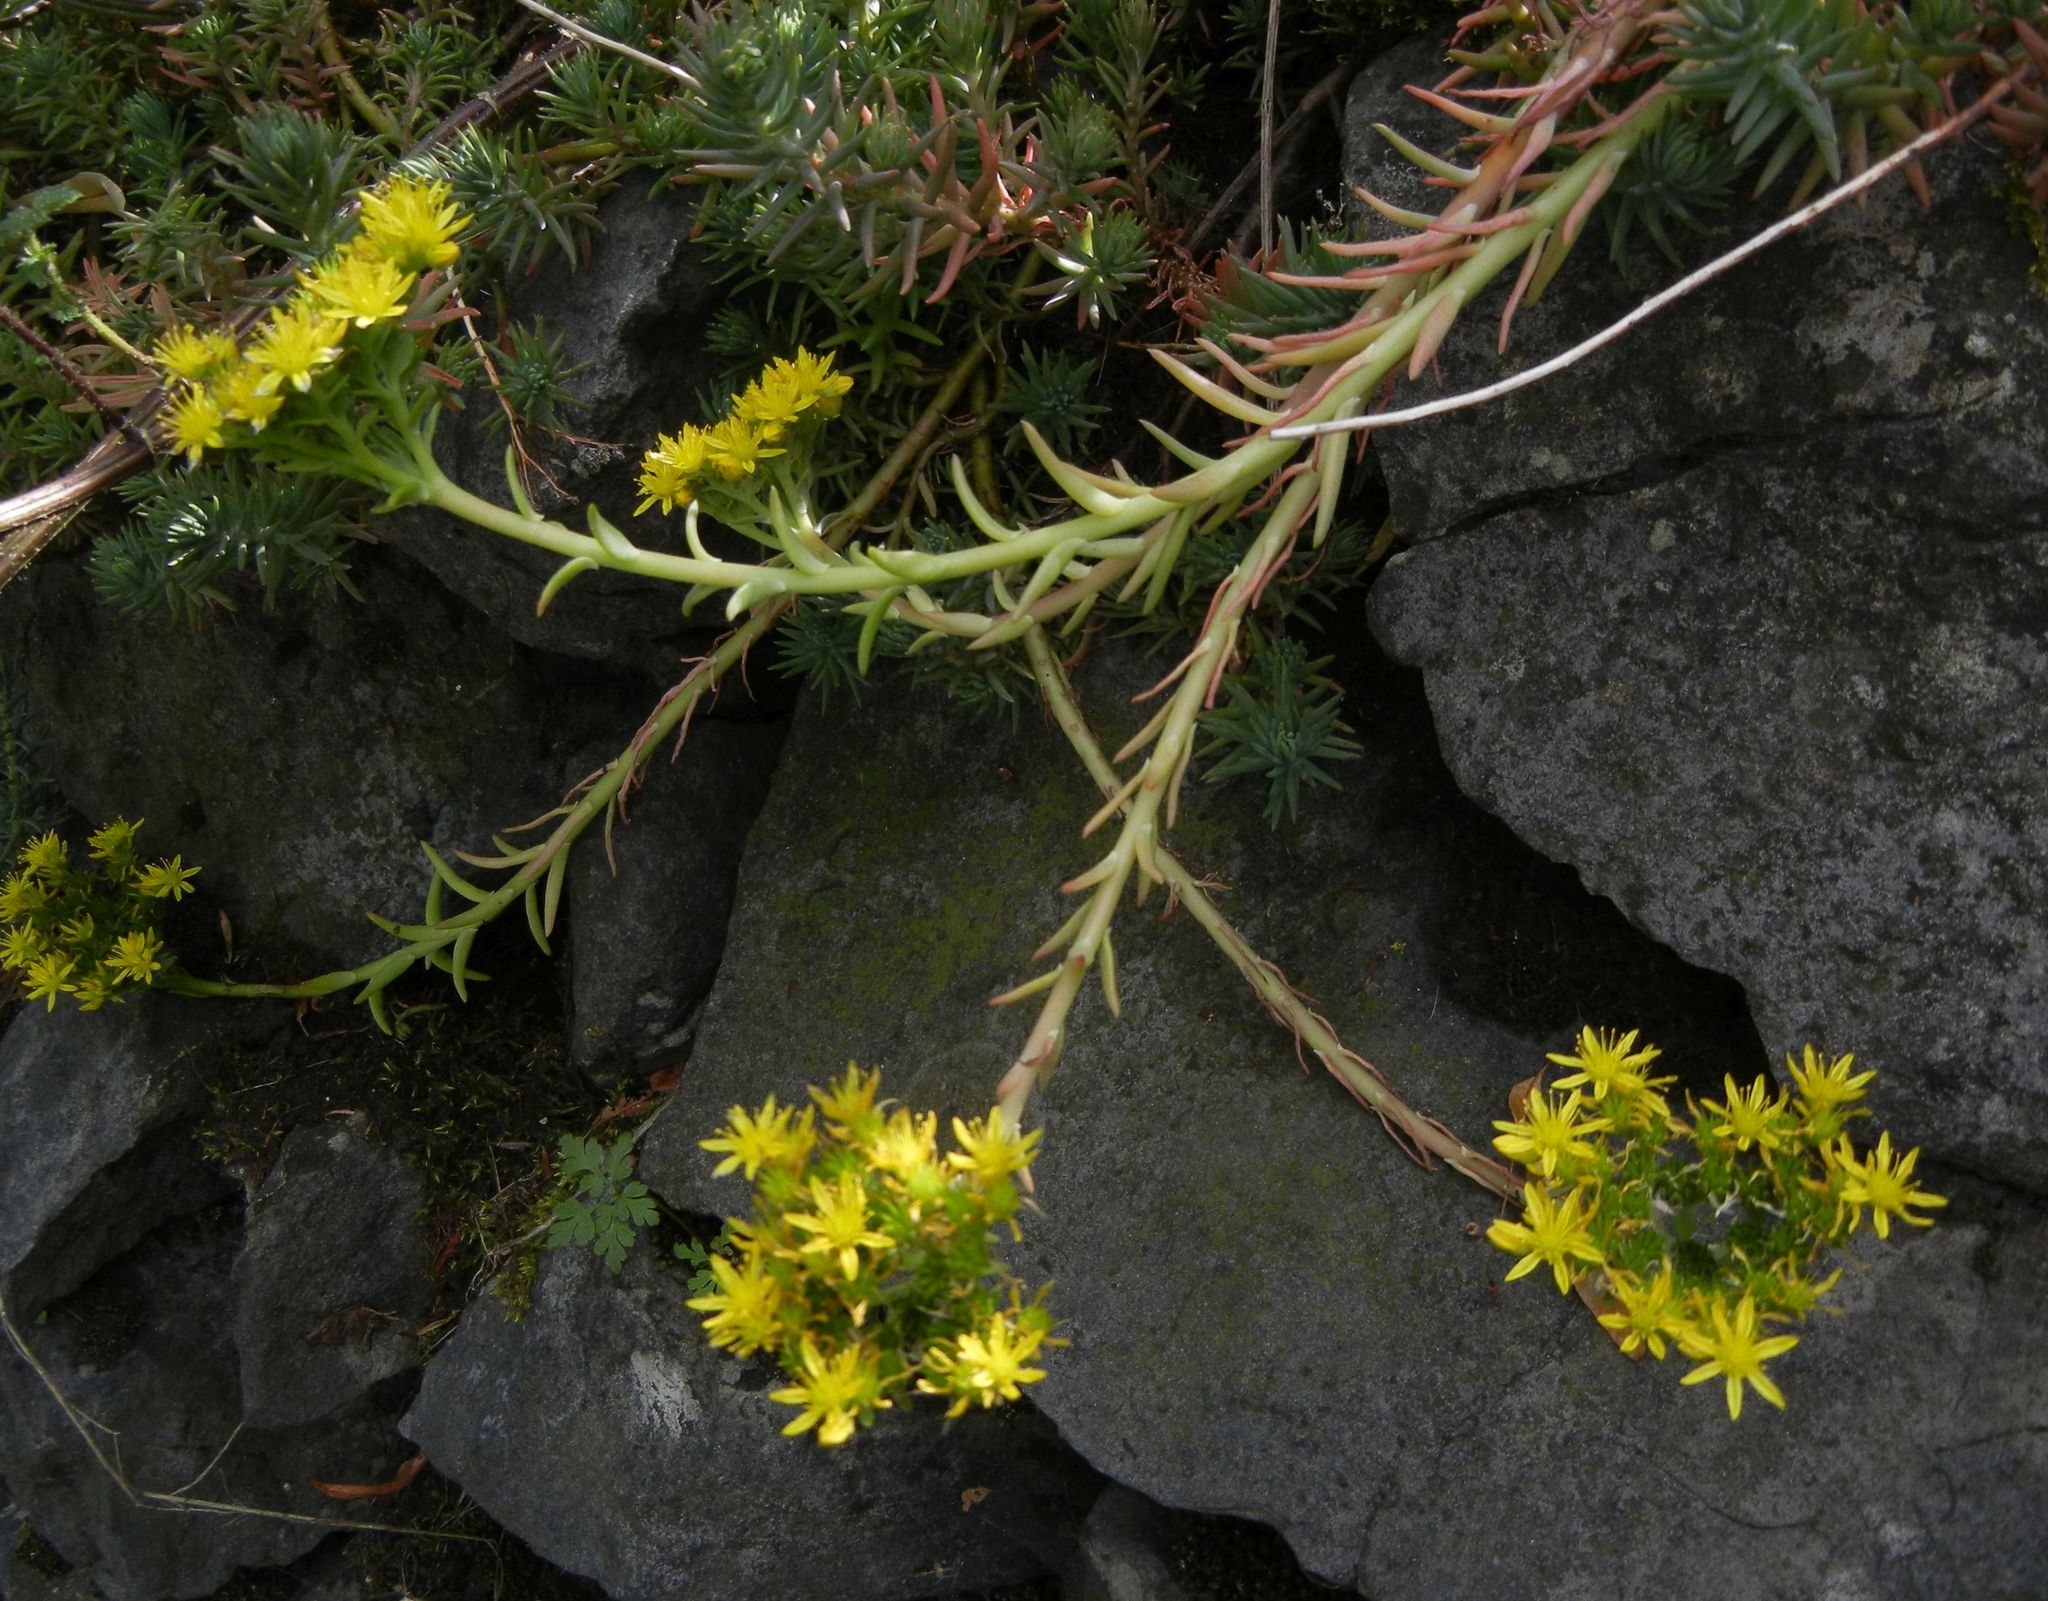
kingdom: Plantae
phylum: Tracheophyta
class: Magnoliopsida
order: Saxifragales
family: Crassulaceae
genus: Petrosedum
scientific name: Petrosedum rupestre
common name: Jenny's stonecrop
